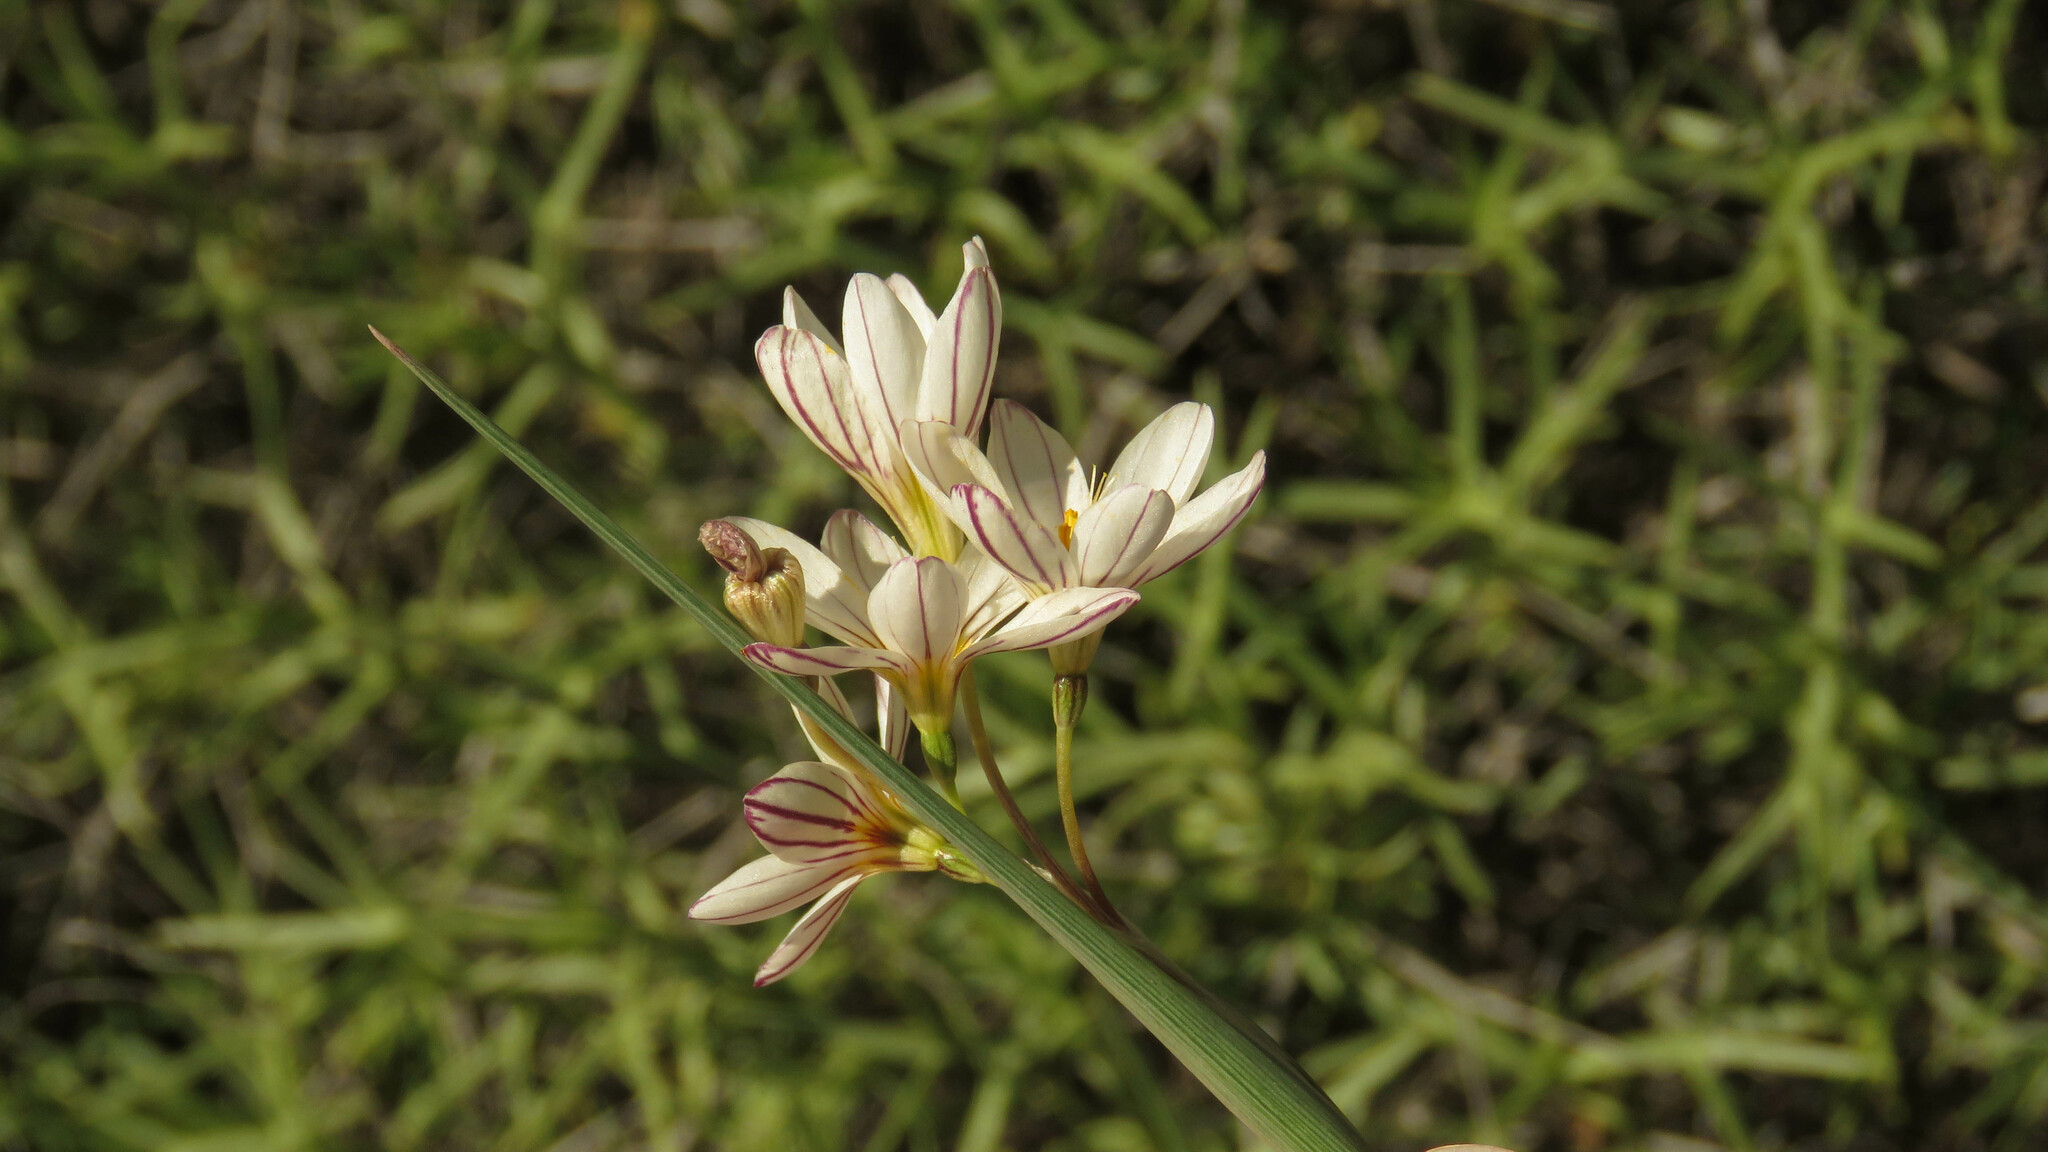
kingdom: Plantae
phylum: Tracheophyta
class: Liliopsida
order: Asparagales
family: Iridaceae
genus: Olsynium
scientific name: Olsynium junceum
